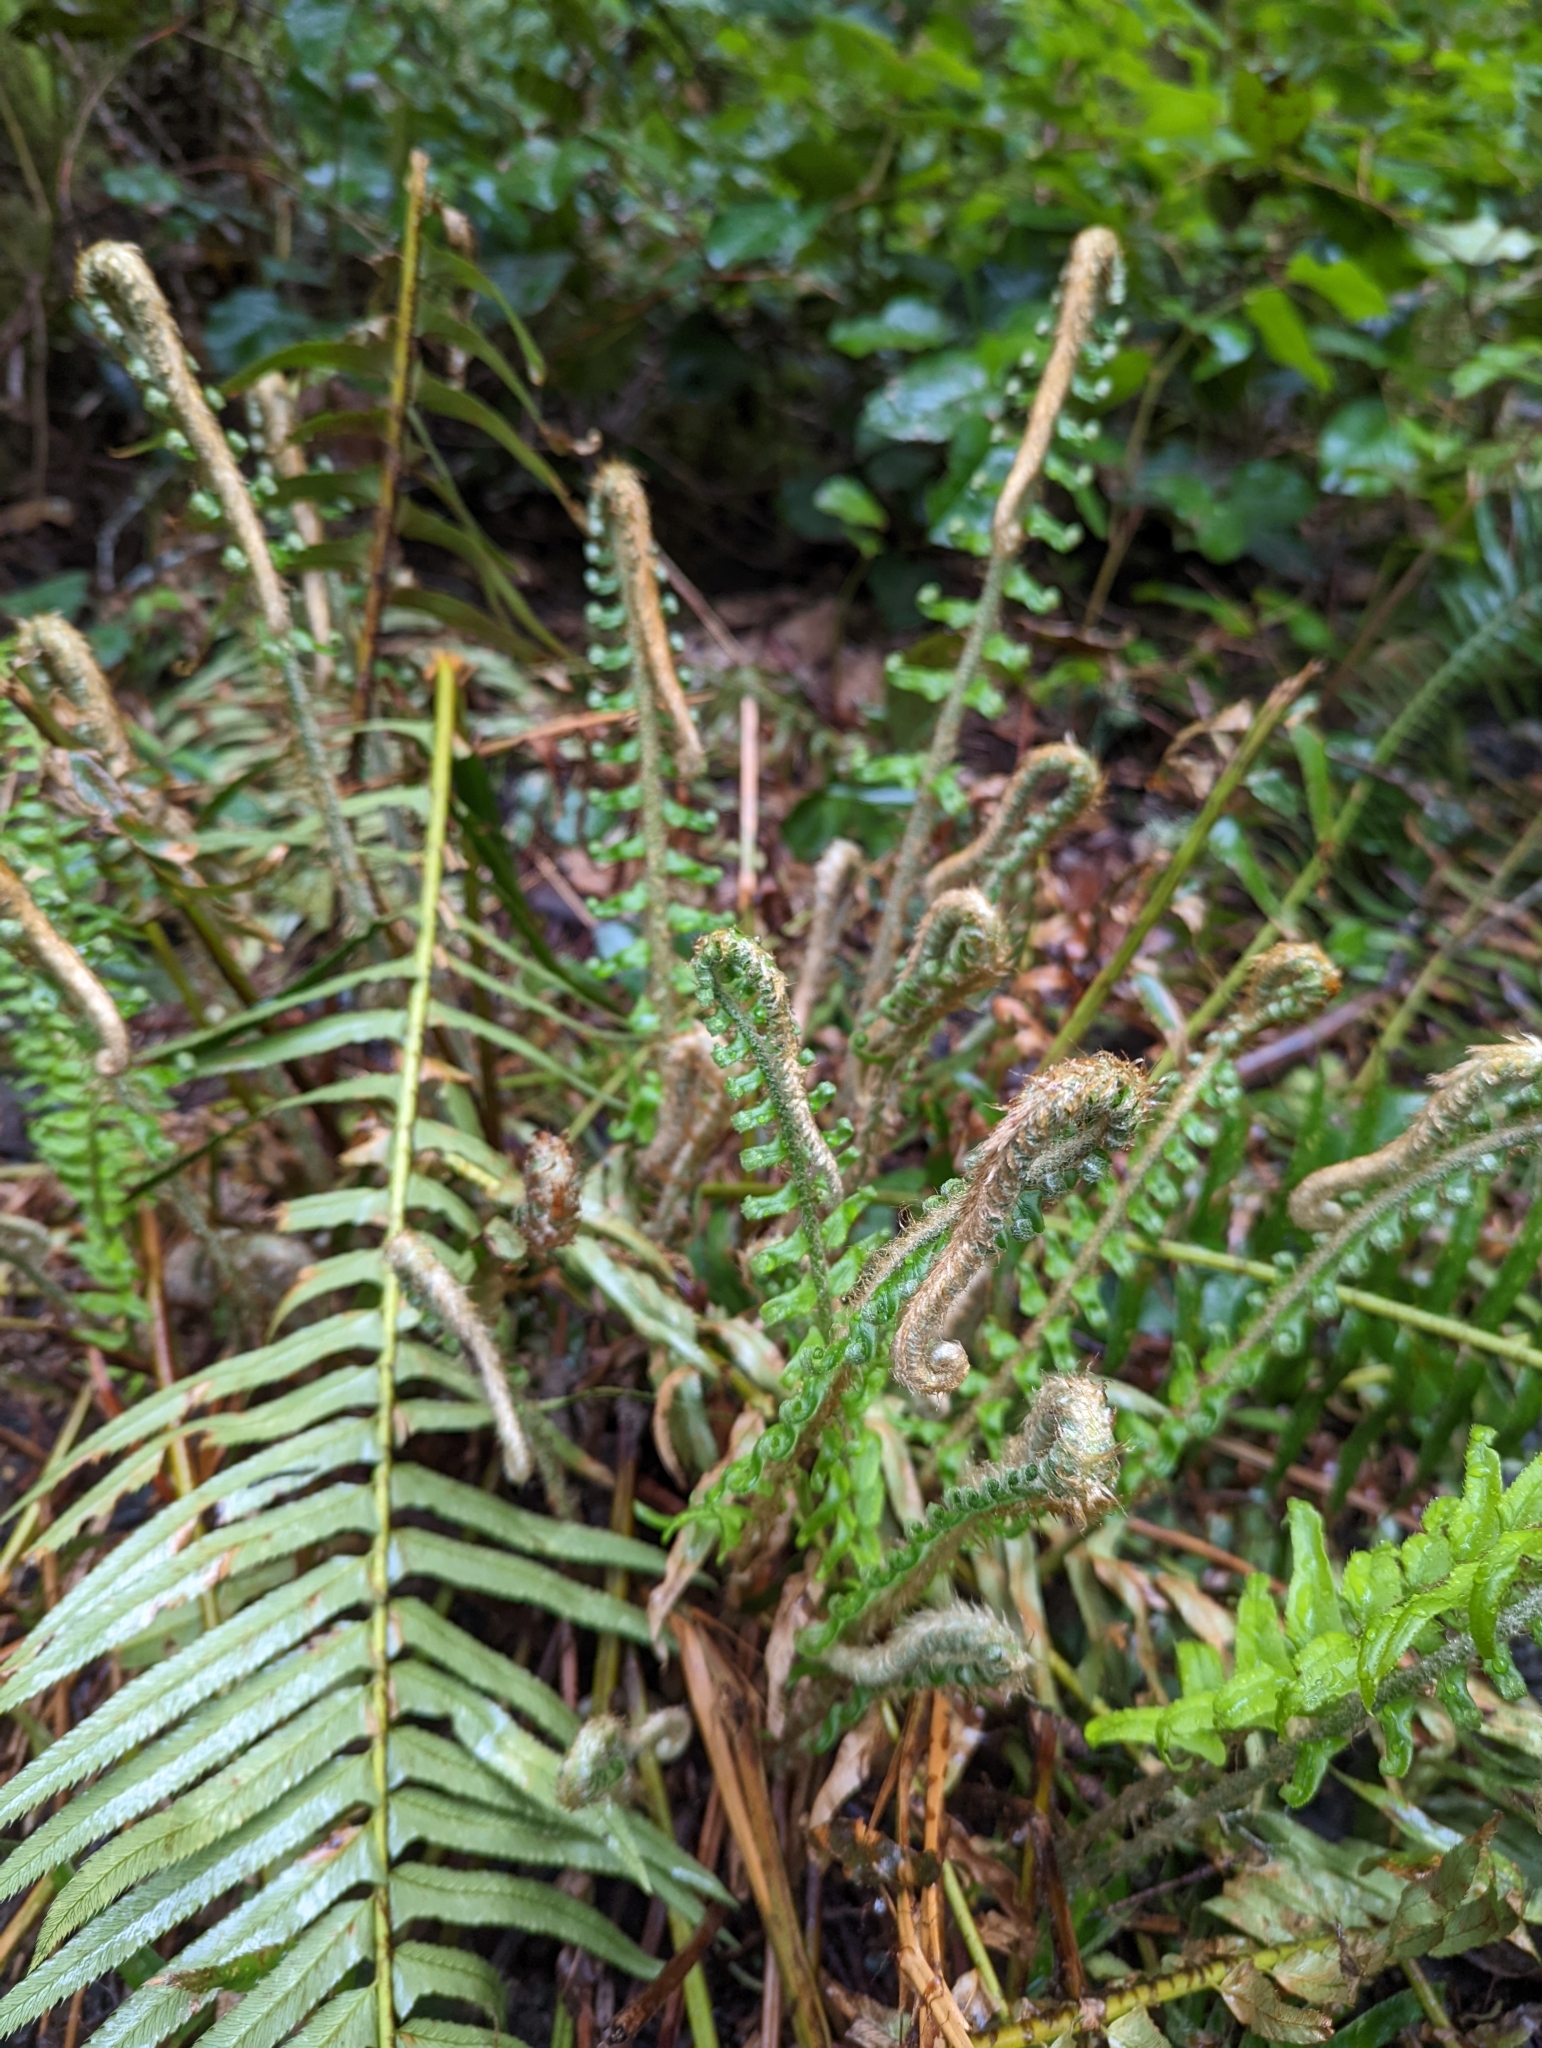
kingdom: Plantae
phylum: Tracheophyta
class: Polypodiopsida
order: Polypodiales
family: Dryopteridaceae
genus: Polystichum
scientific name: Polystichum munitum
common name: Western sword-fern
